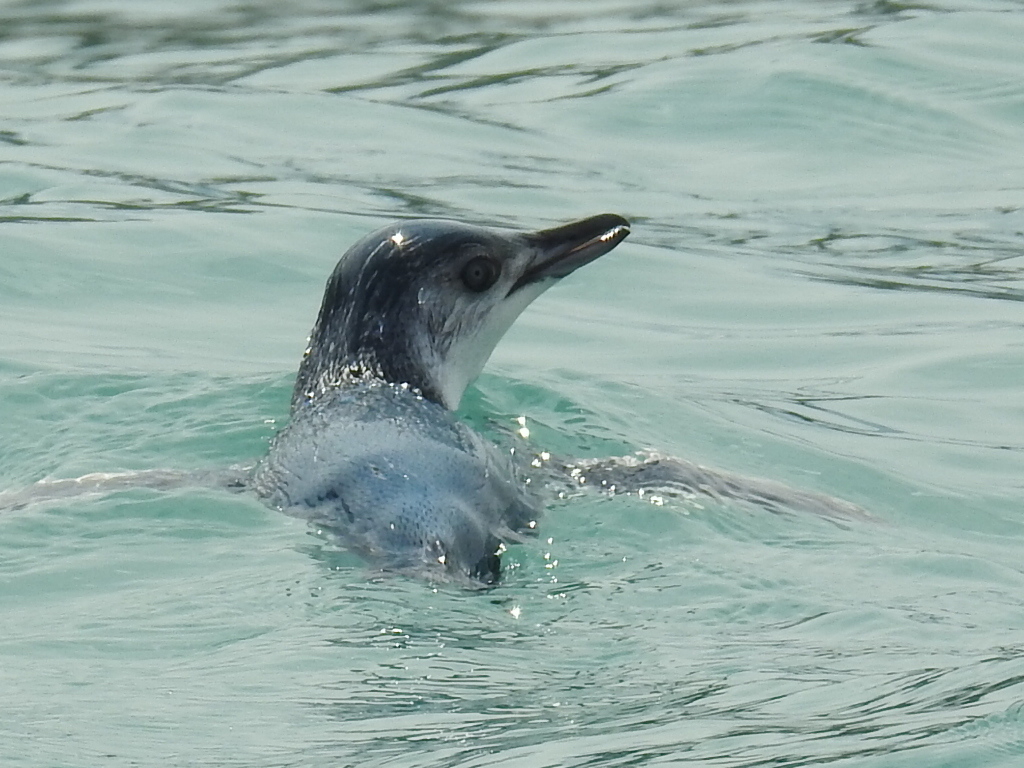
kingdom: Animalia
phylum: Chordata
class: Aves
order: Sphenisciformes
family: Spheniscidae
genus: Eudyptula
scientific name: Eudyptula minor
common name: Little penguin
